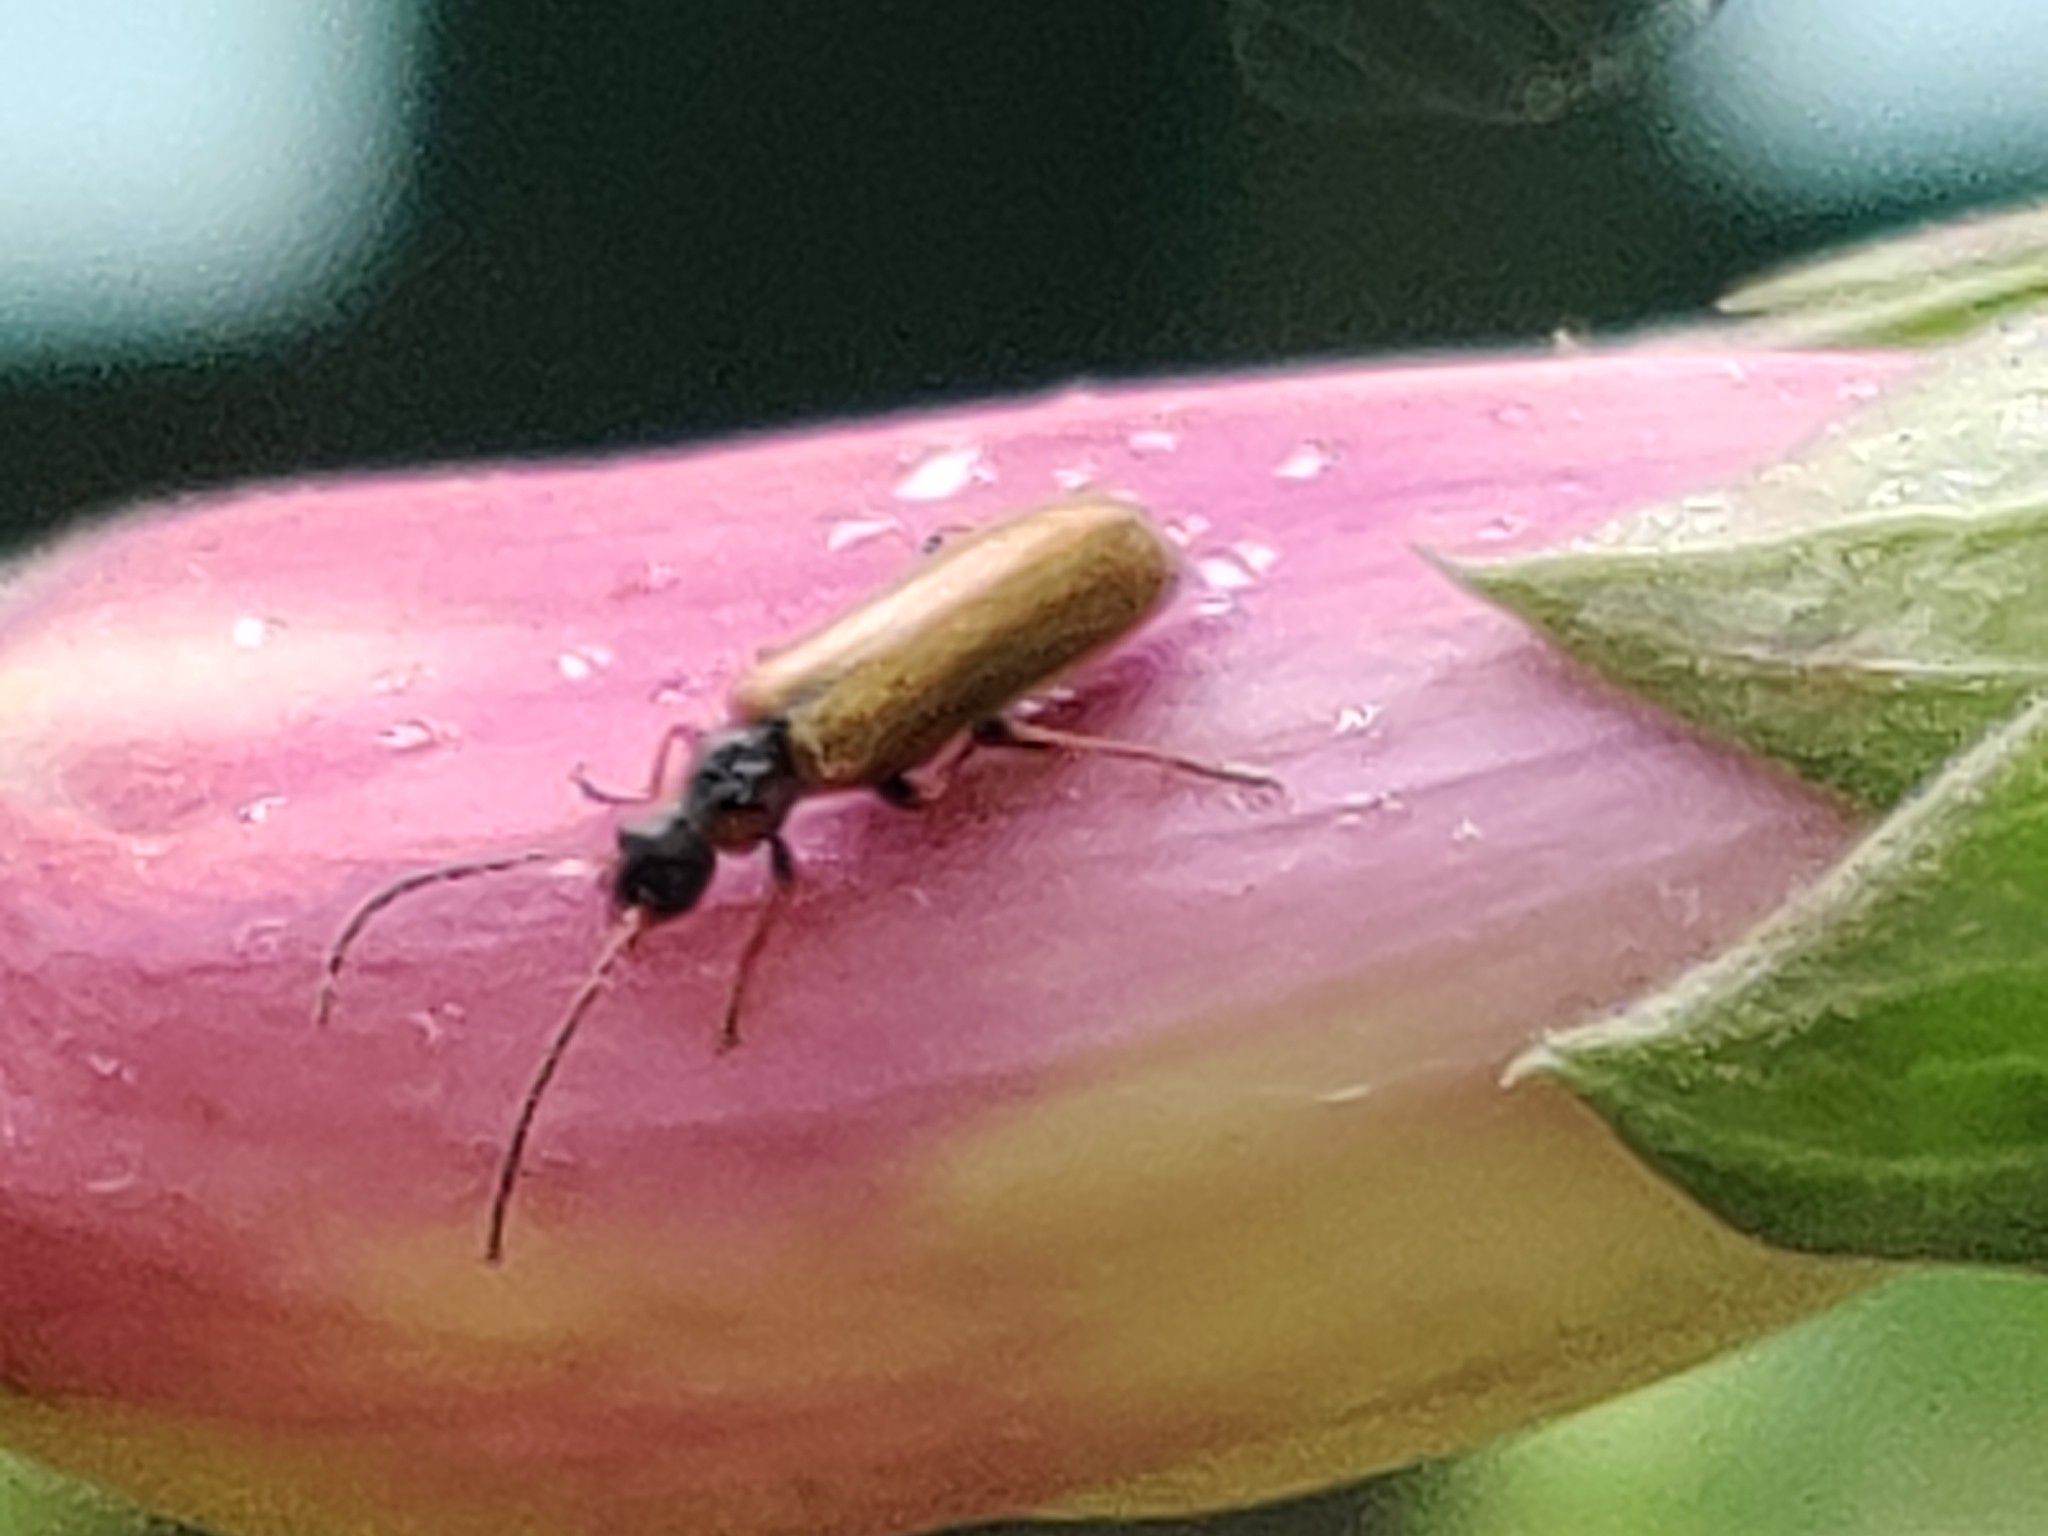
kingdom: Animalia
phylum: Arthropoda
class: Insecta
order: Coleoptera
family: Cantharidae
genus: Rhagonycha
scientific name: Rhagonycha nigriventris
